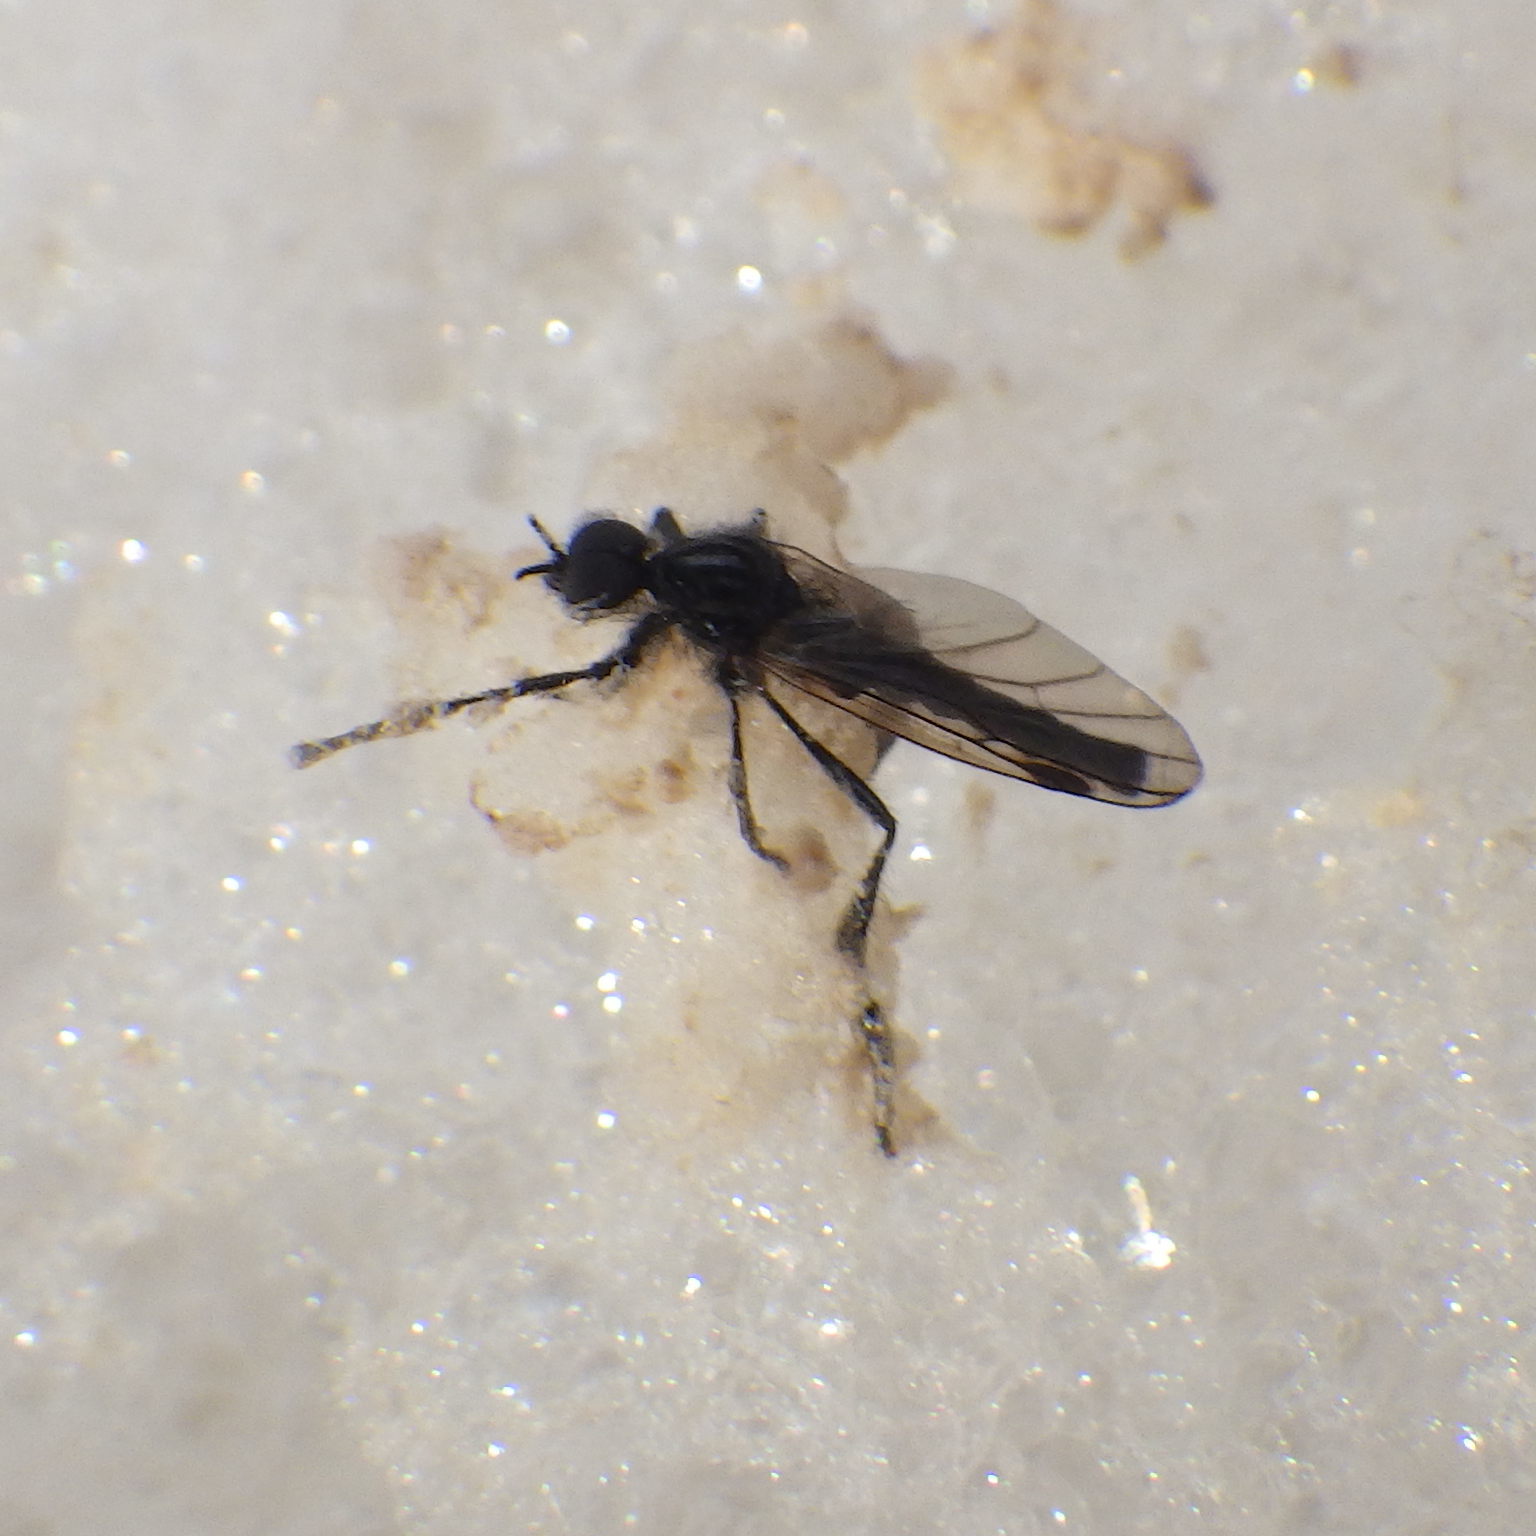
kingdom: Animalia
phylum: Arthropoda
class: Insecta
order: Diptera
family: Bibionidae
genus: Bibio
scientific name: Bibio slossonae
